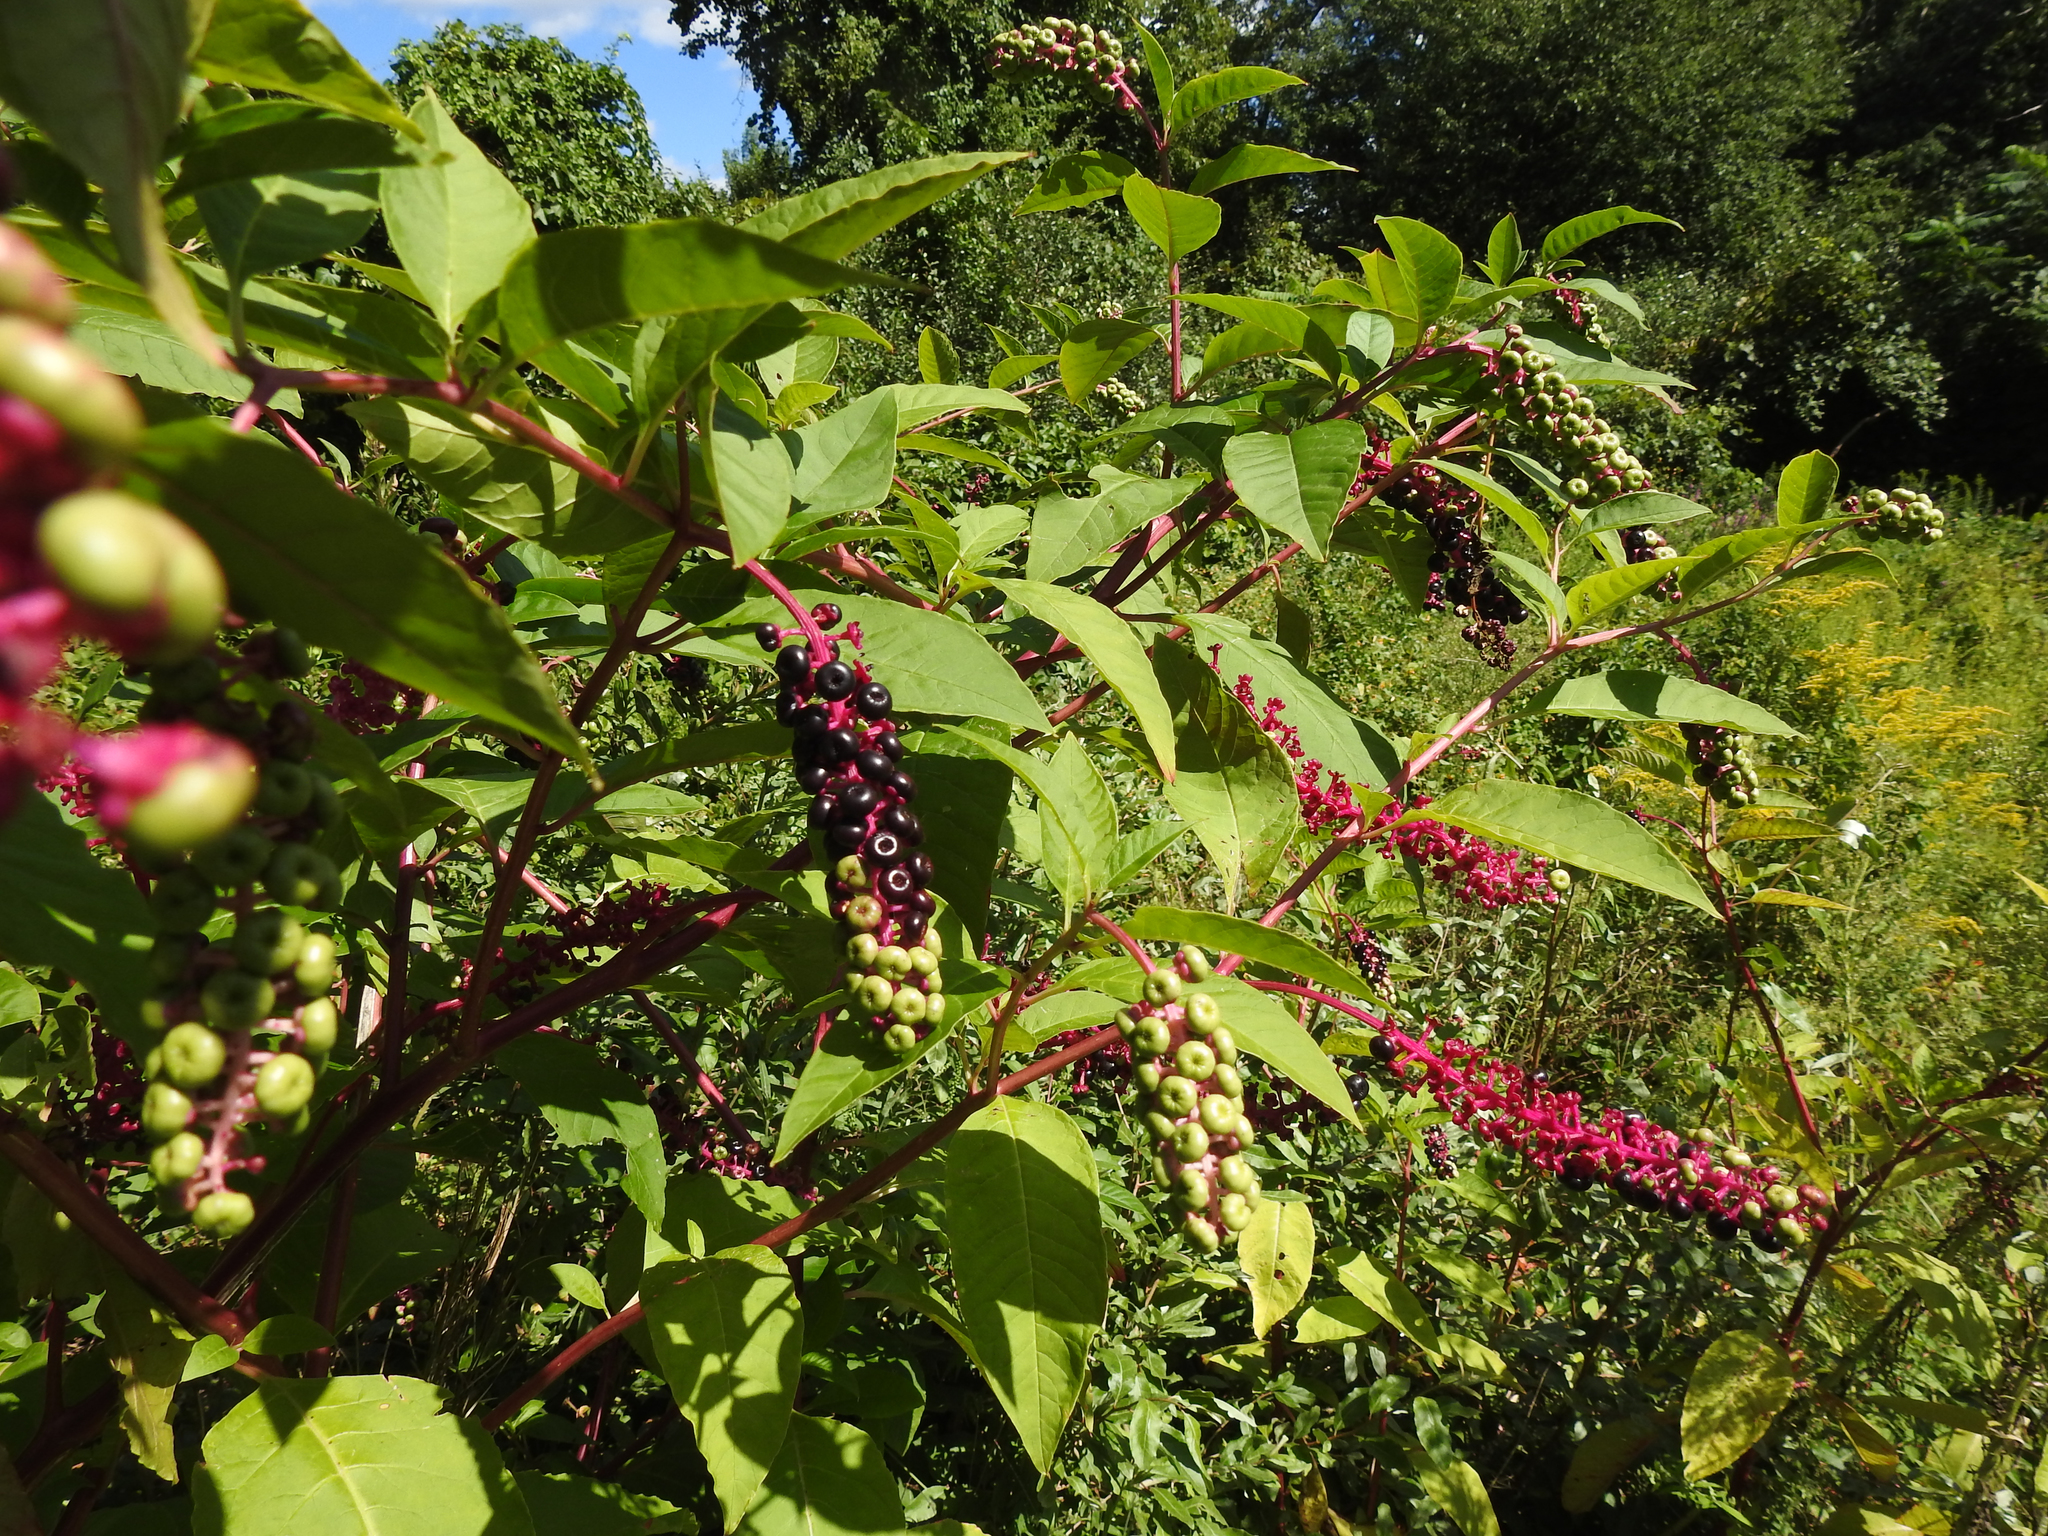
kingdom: Plantae
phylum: Tracheophyta
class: Magnoliopsida
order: Caryophyllales
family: Phytolaccaceae
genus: Phytolacca
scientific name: Phytolacca americana
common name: American pokeweed
